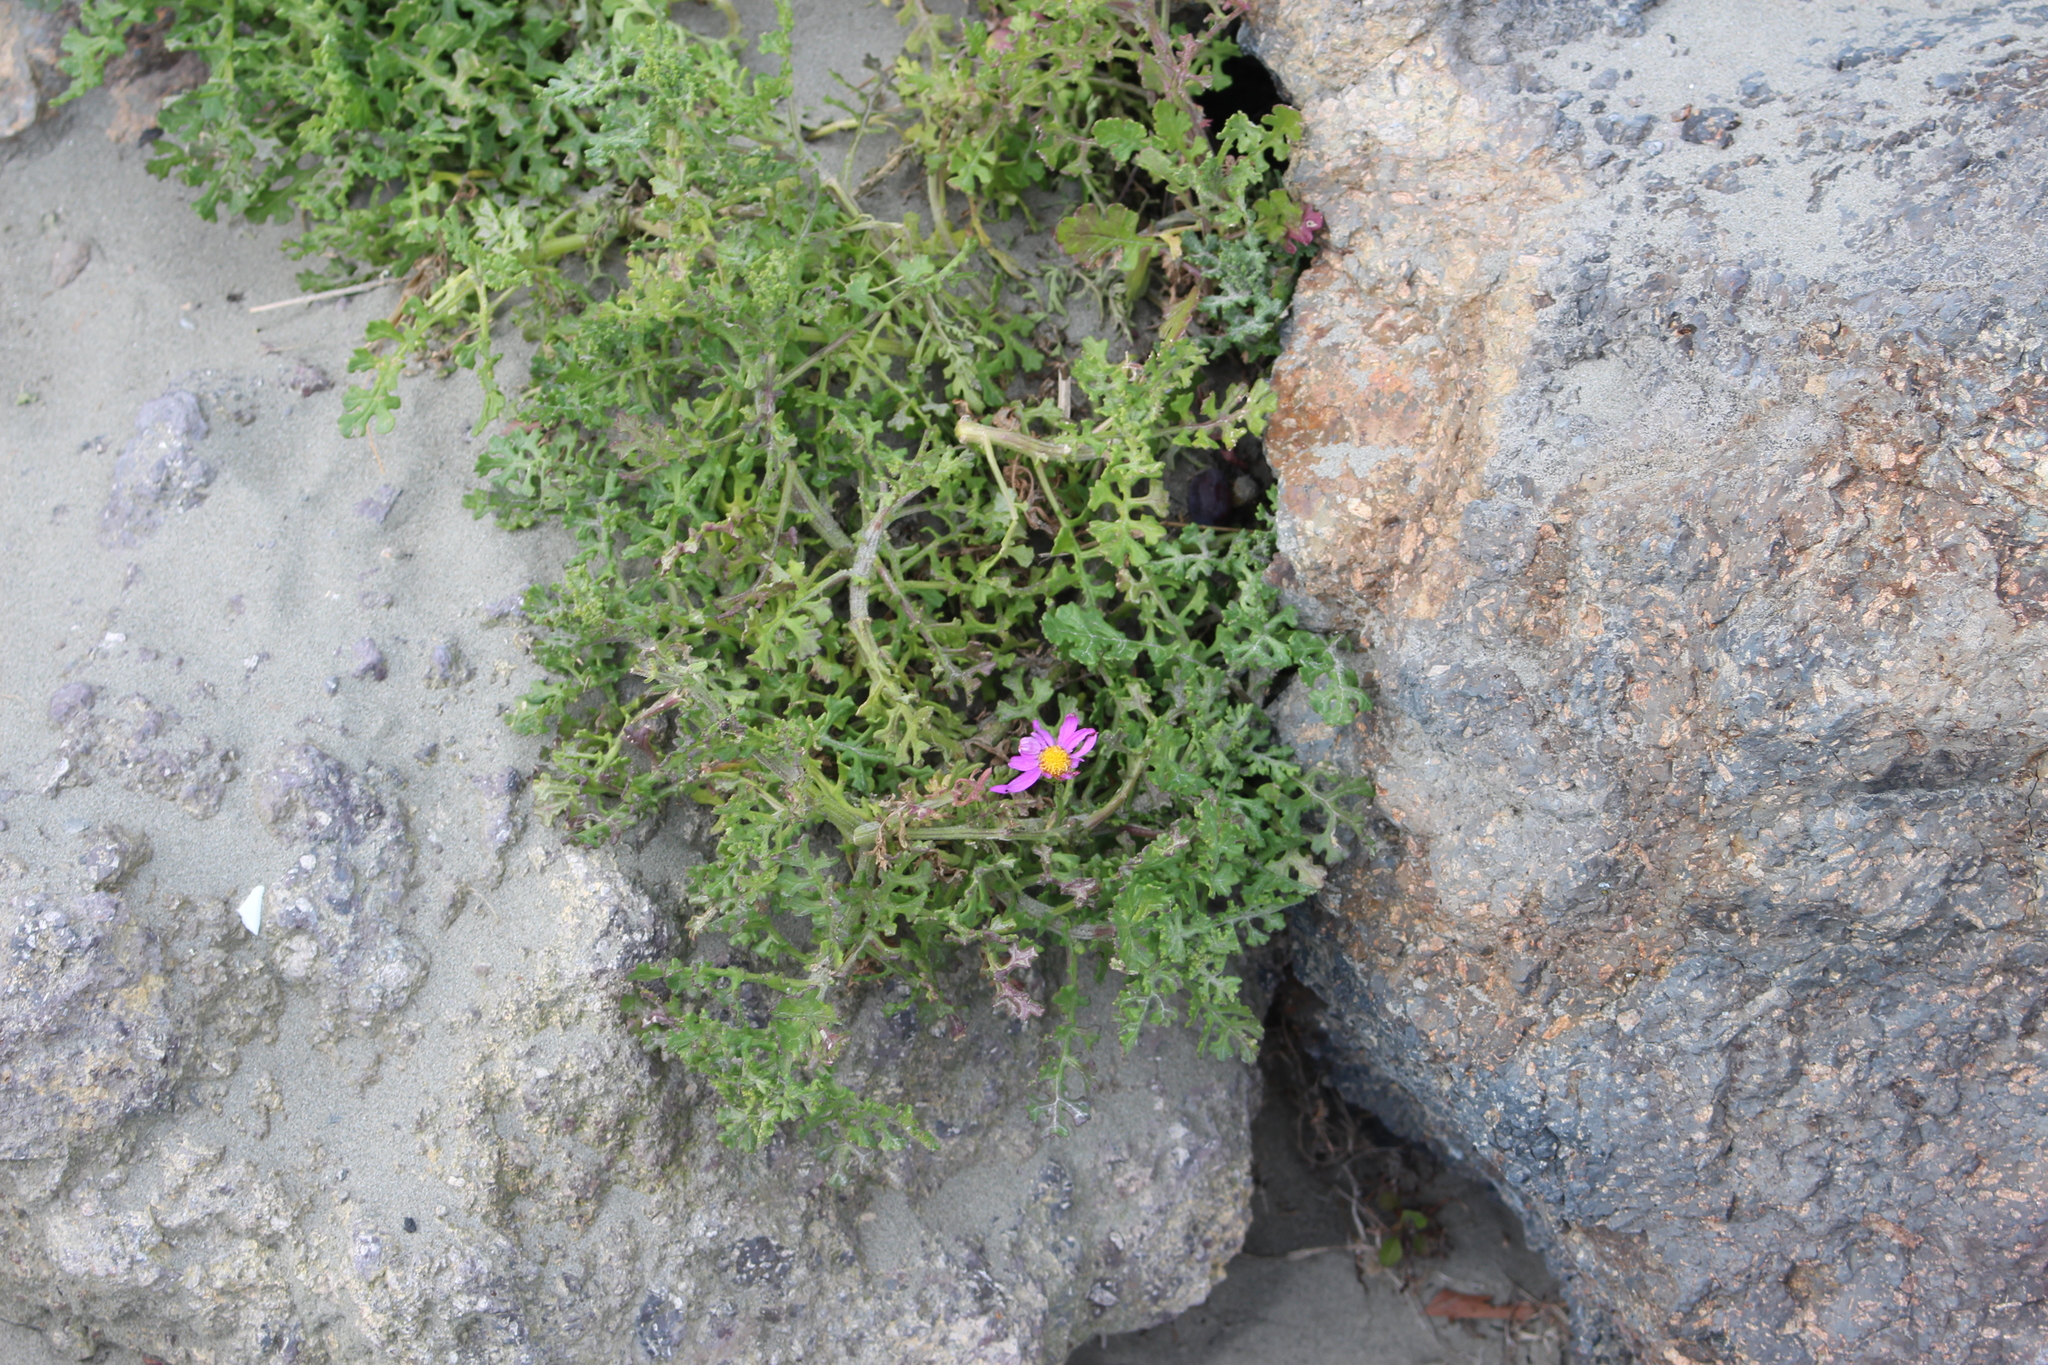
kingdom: Plantae
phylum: Tracheophyta
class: Magnoliopsida
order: Asterales
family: Asteraceae
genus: Senecio
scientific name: Senecio elegans
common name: Purple groundsel
